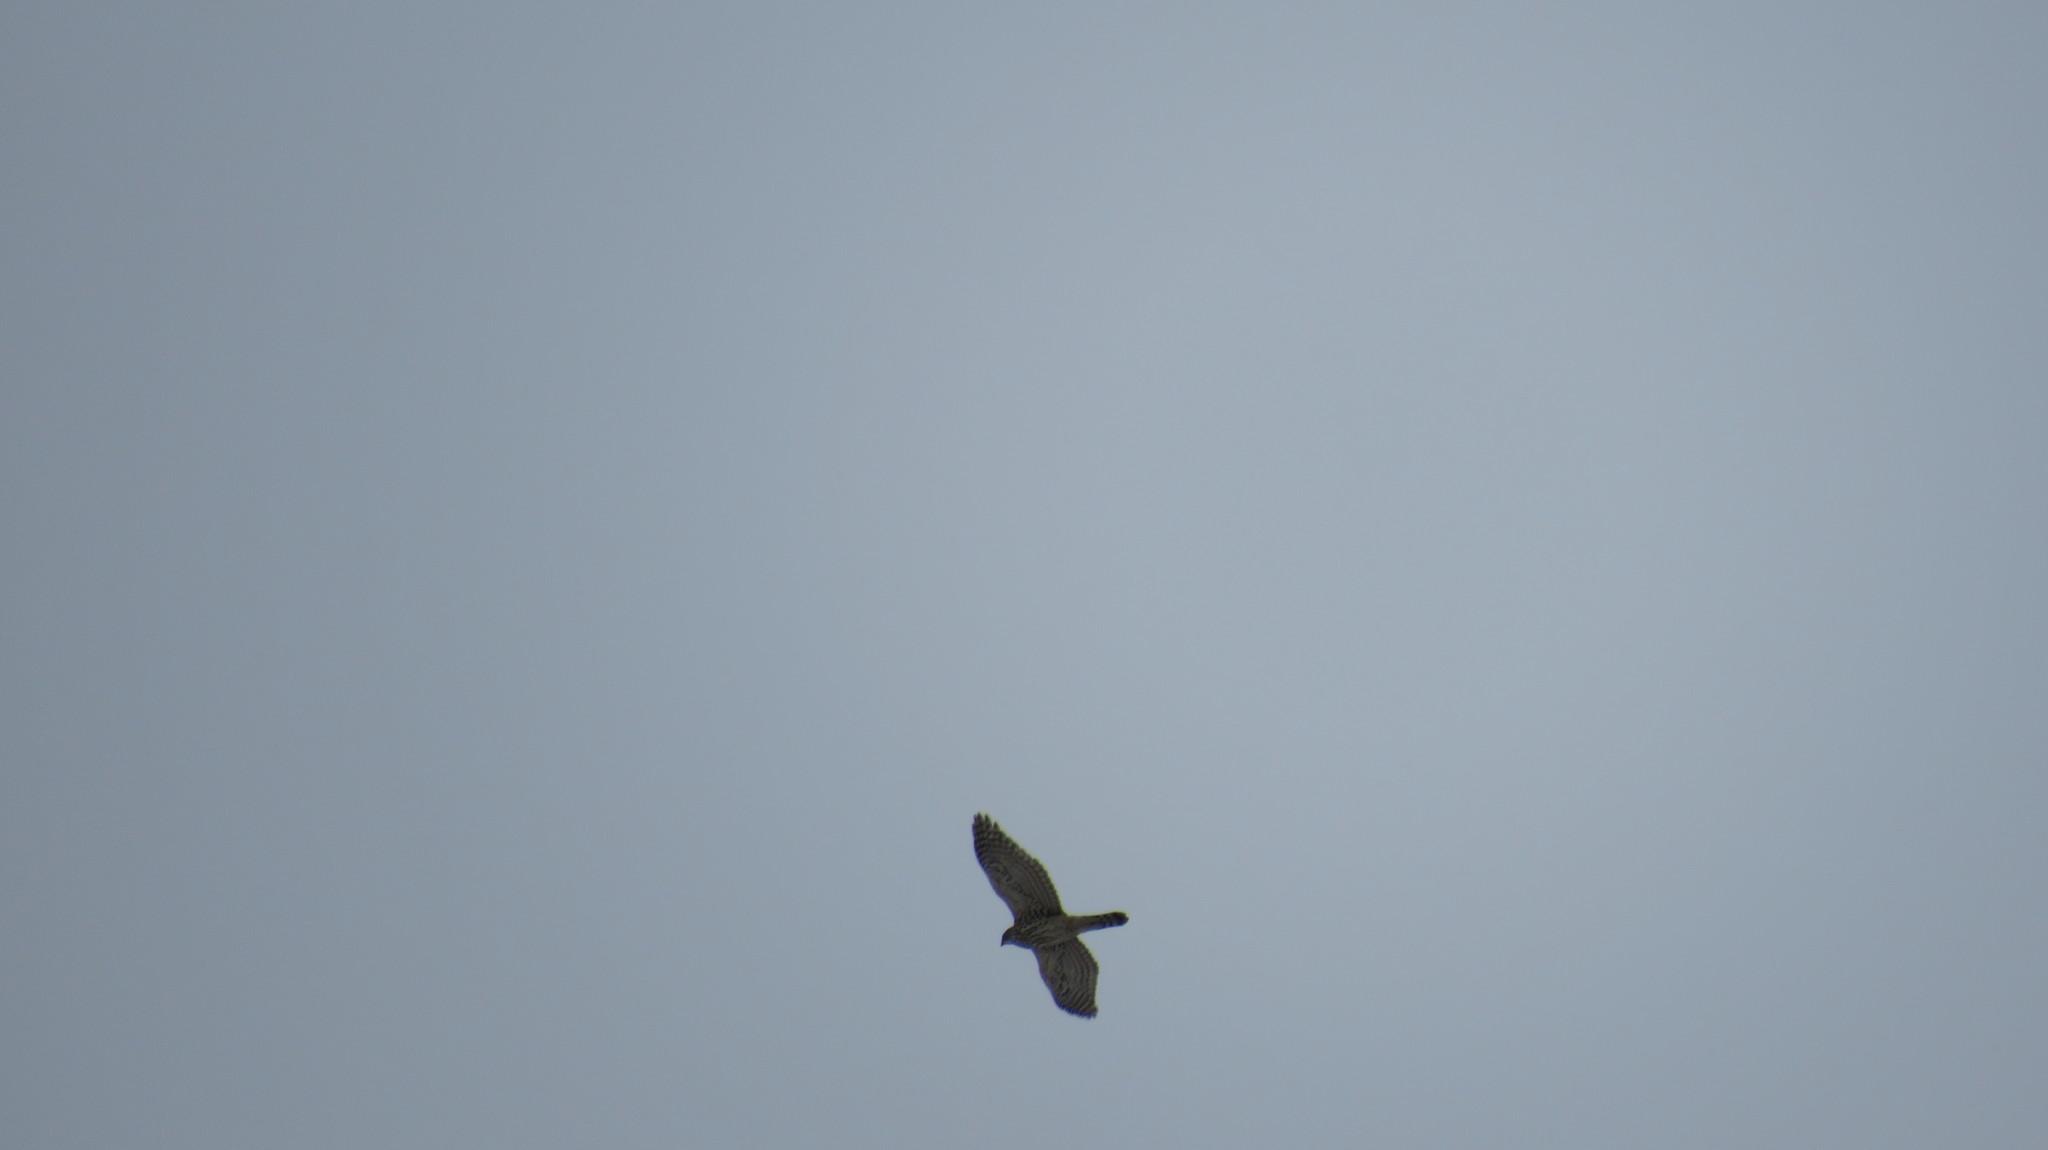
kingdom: Animalia
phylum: Chordata
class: Aves
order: Accipitriformes
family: Accipitridae
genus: Accipiter
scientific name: Accipiter gentilis
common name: Northern goshawk
